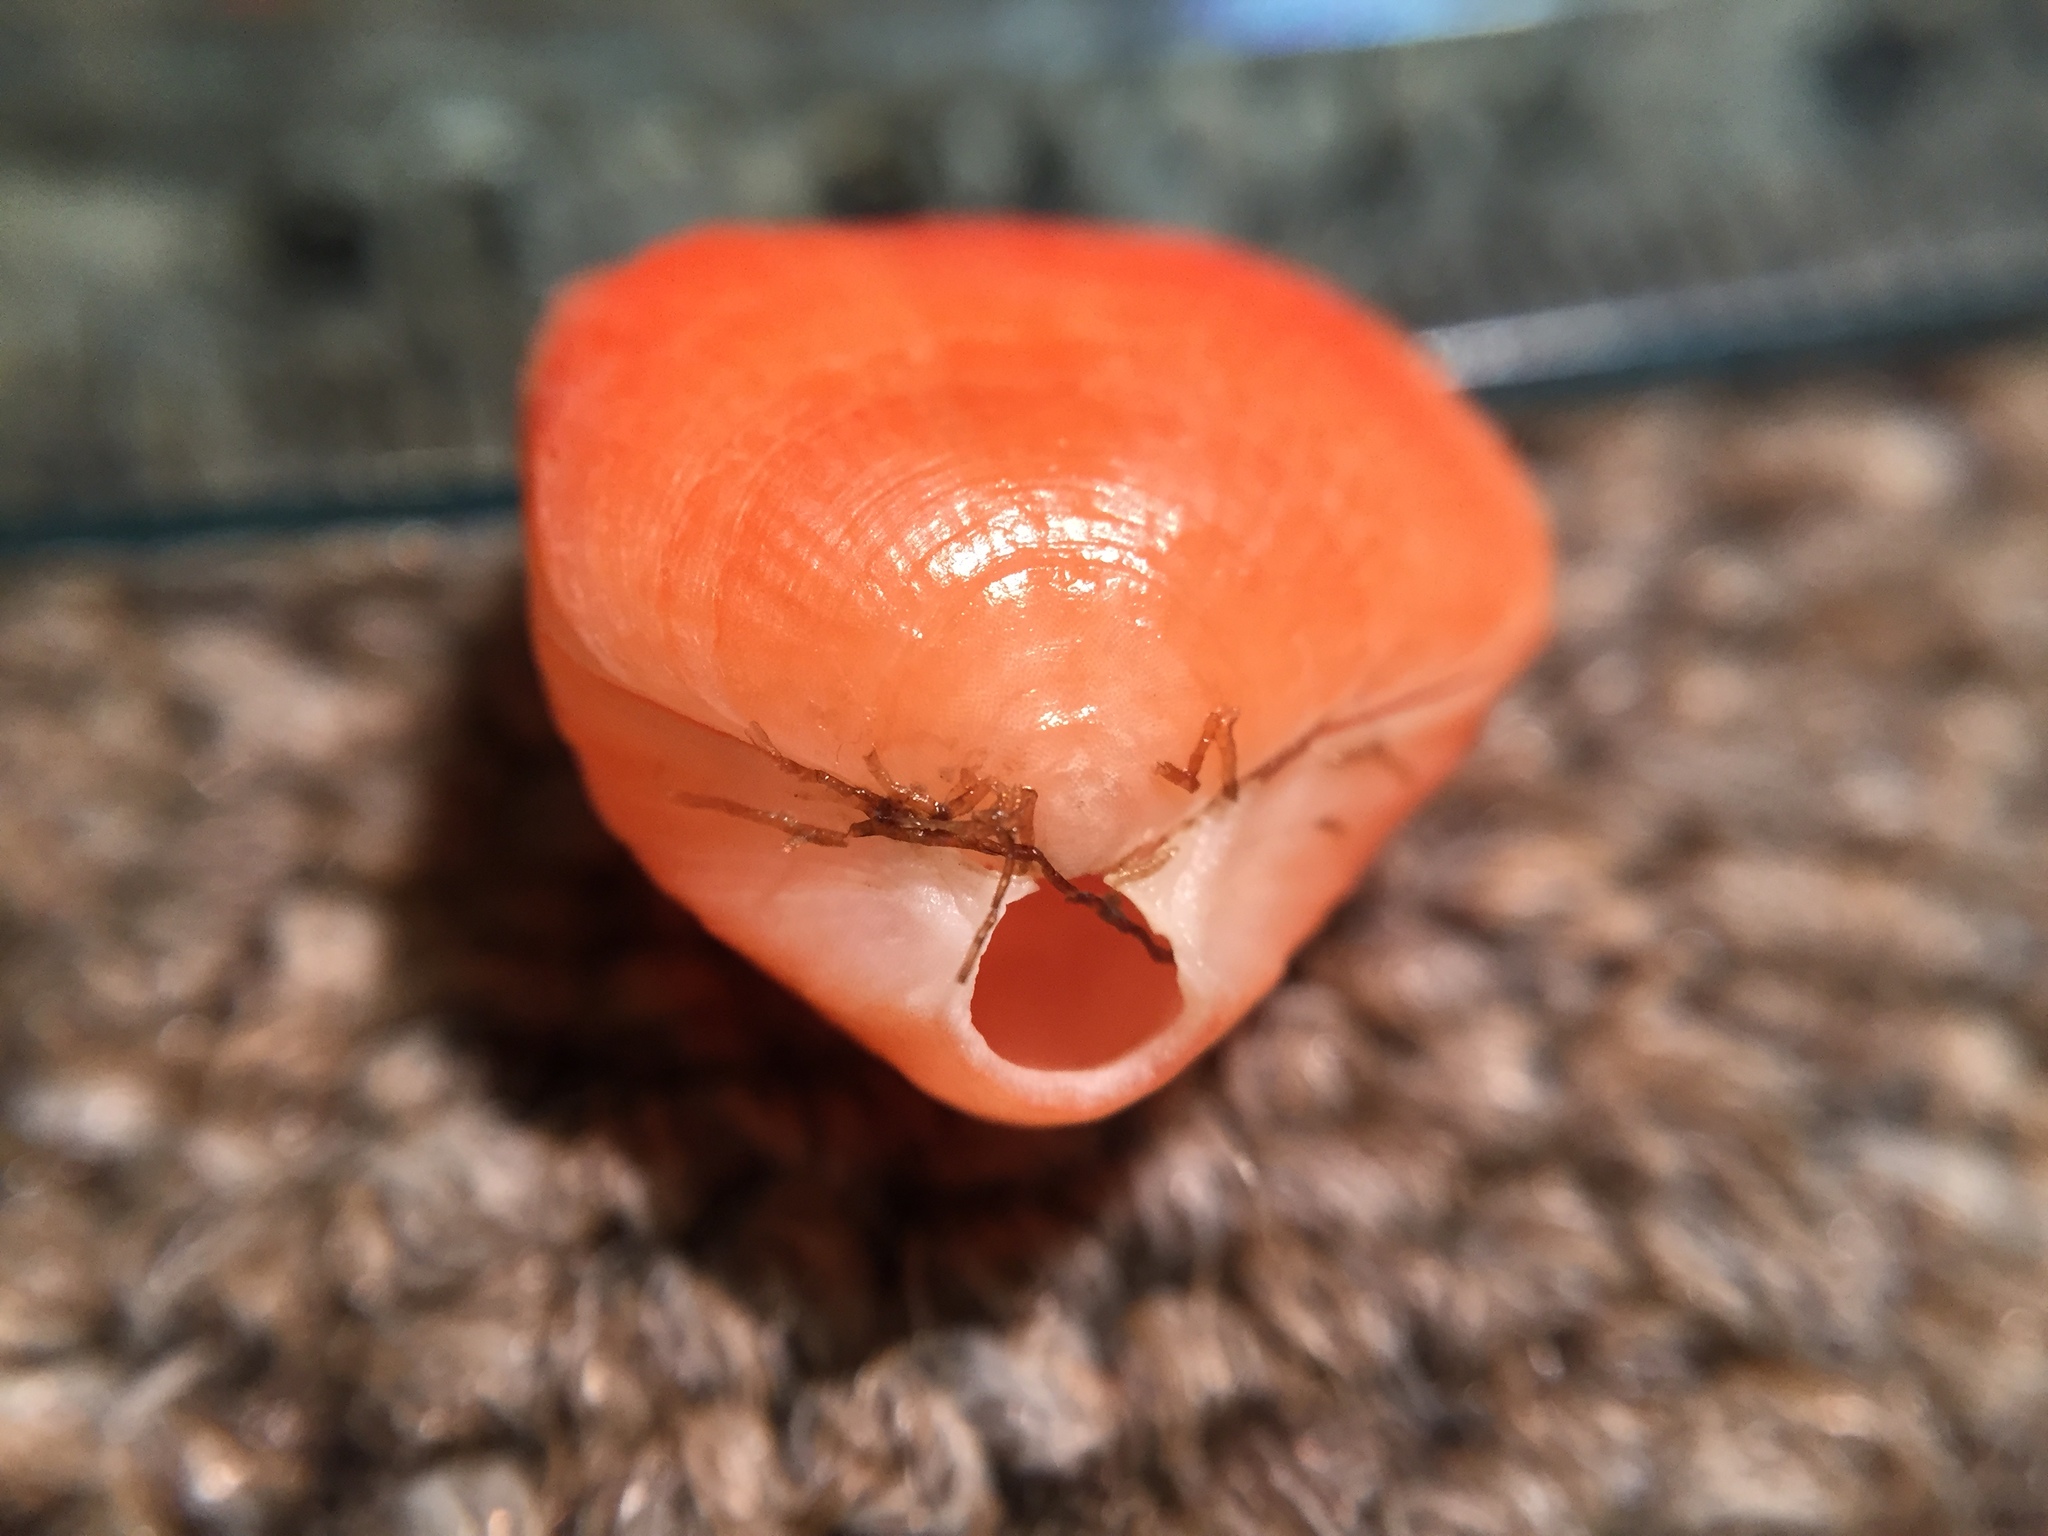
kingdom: Animalia
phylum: Brachiopoda
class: Rhynchonellata
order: Terebratulida
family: Terebratellidae
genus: Calloria
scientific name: Calloria inconspicua
